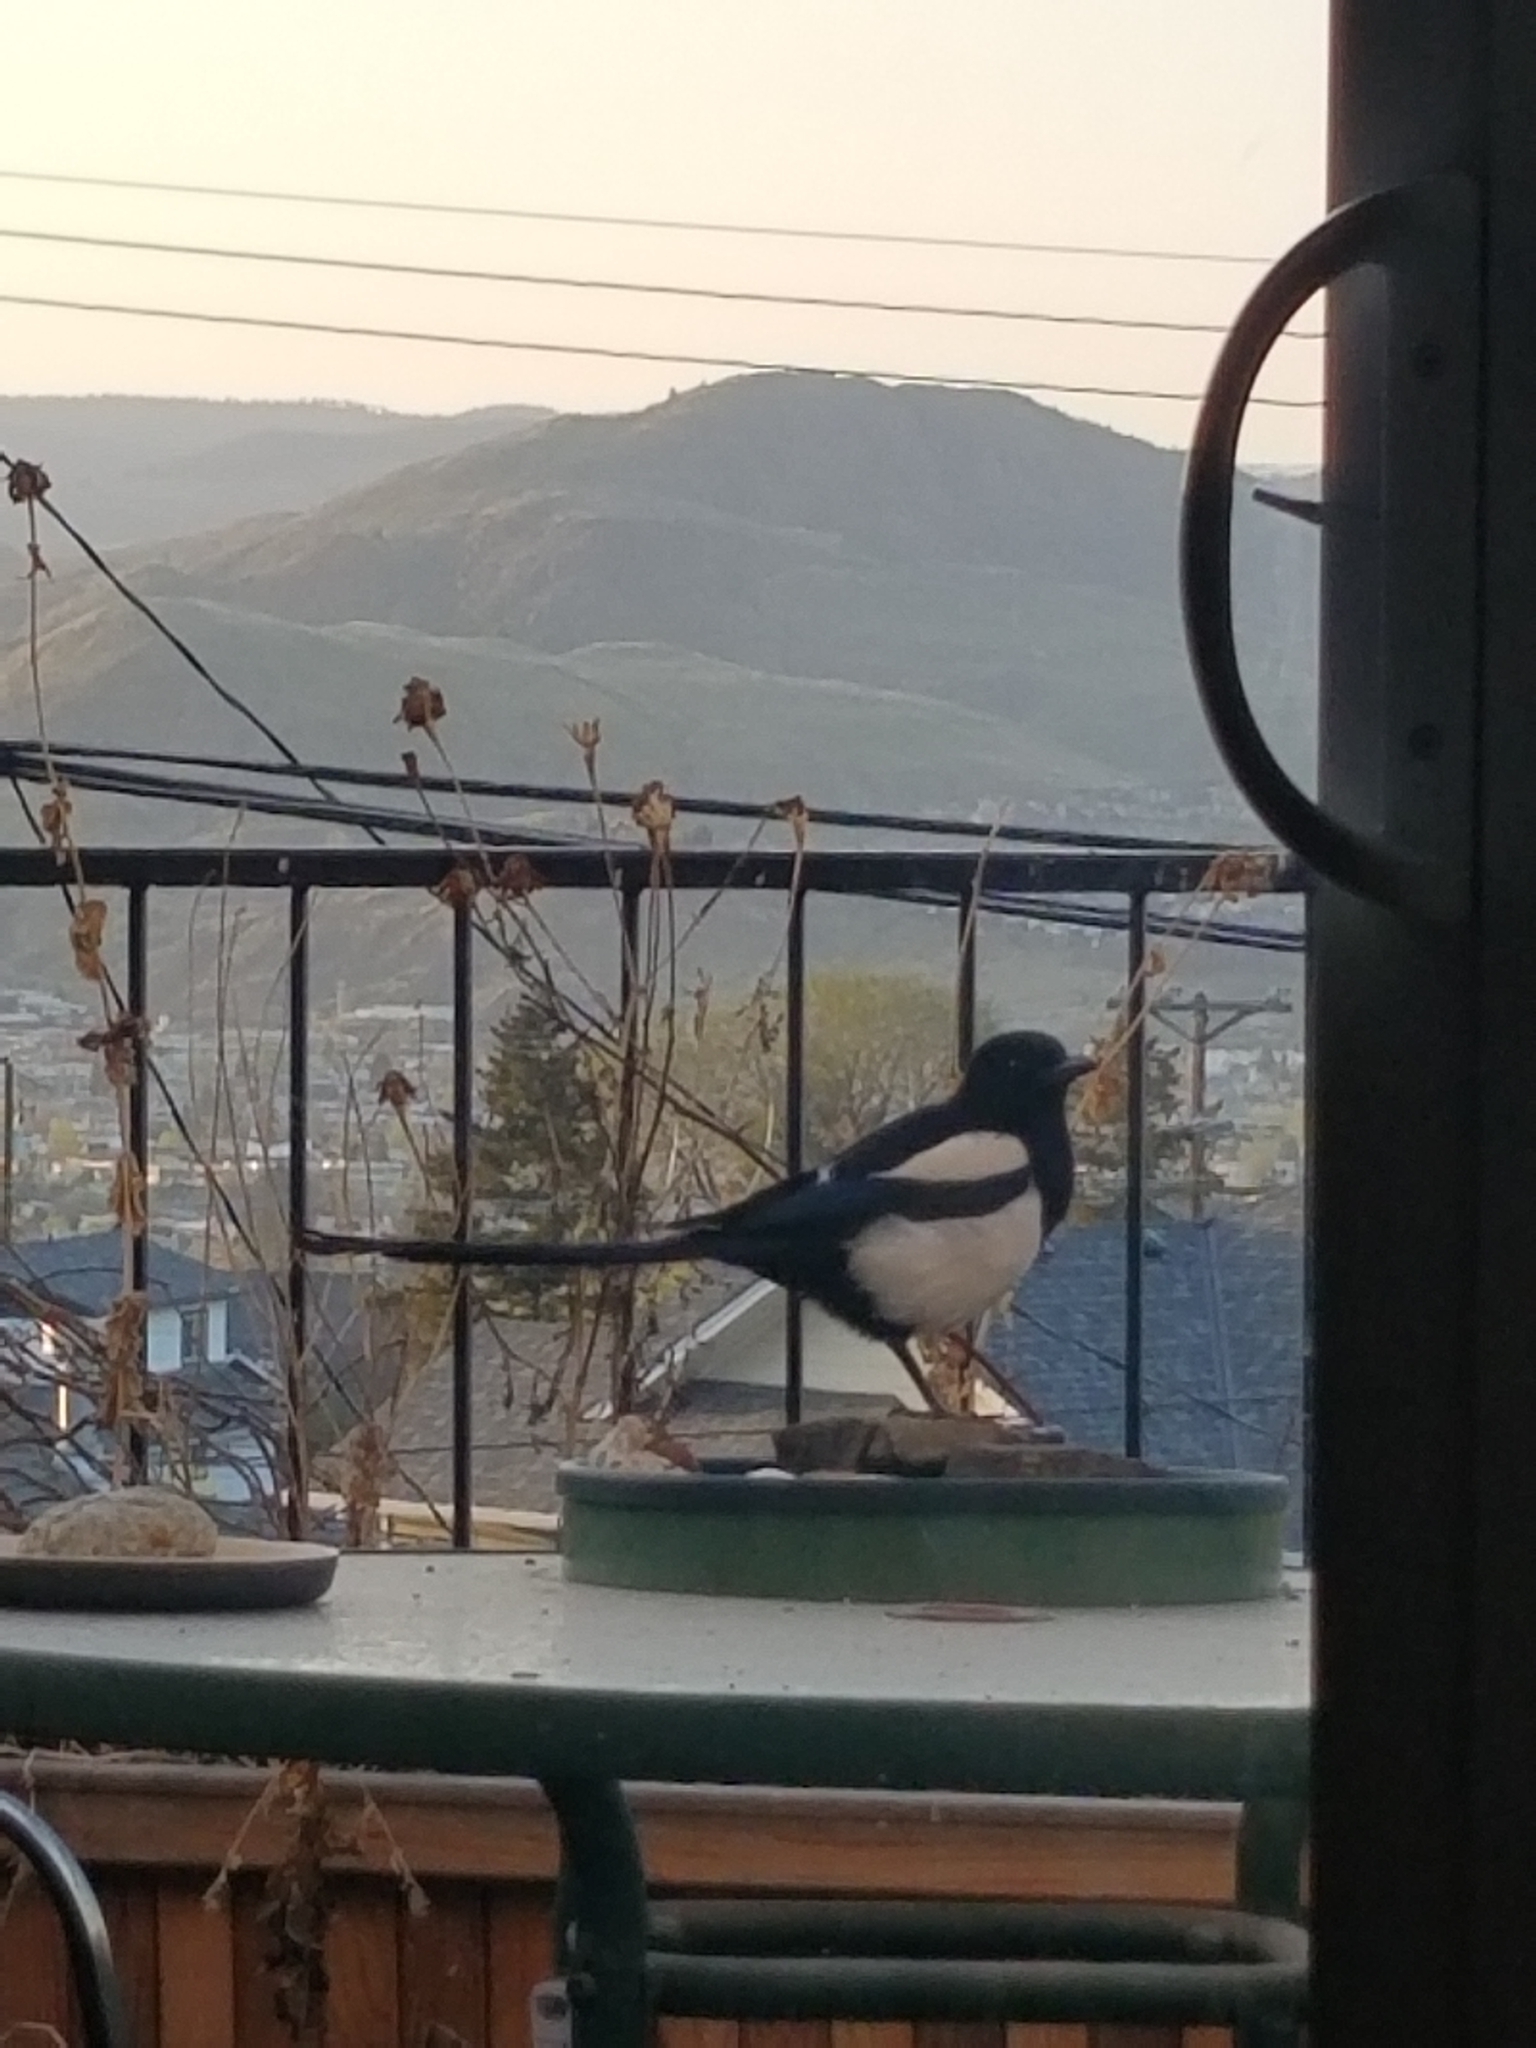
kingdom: Animalia
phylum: Chordata
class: Aves
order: Passeriformes
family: Corvidae
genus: Pica
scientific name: Pica hudsonia
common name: Black-billed magpie
